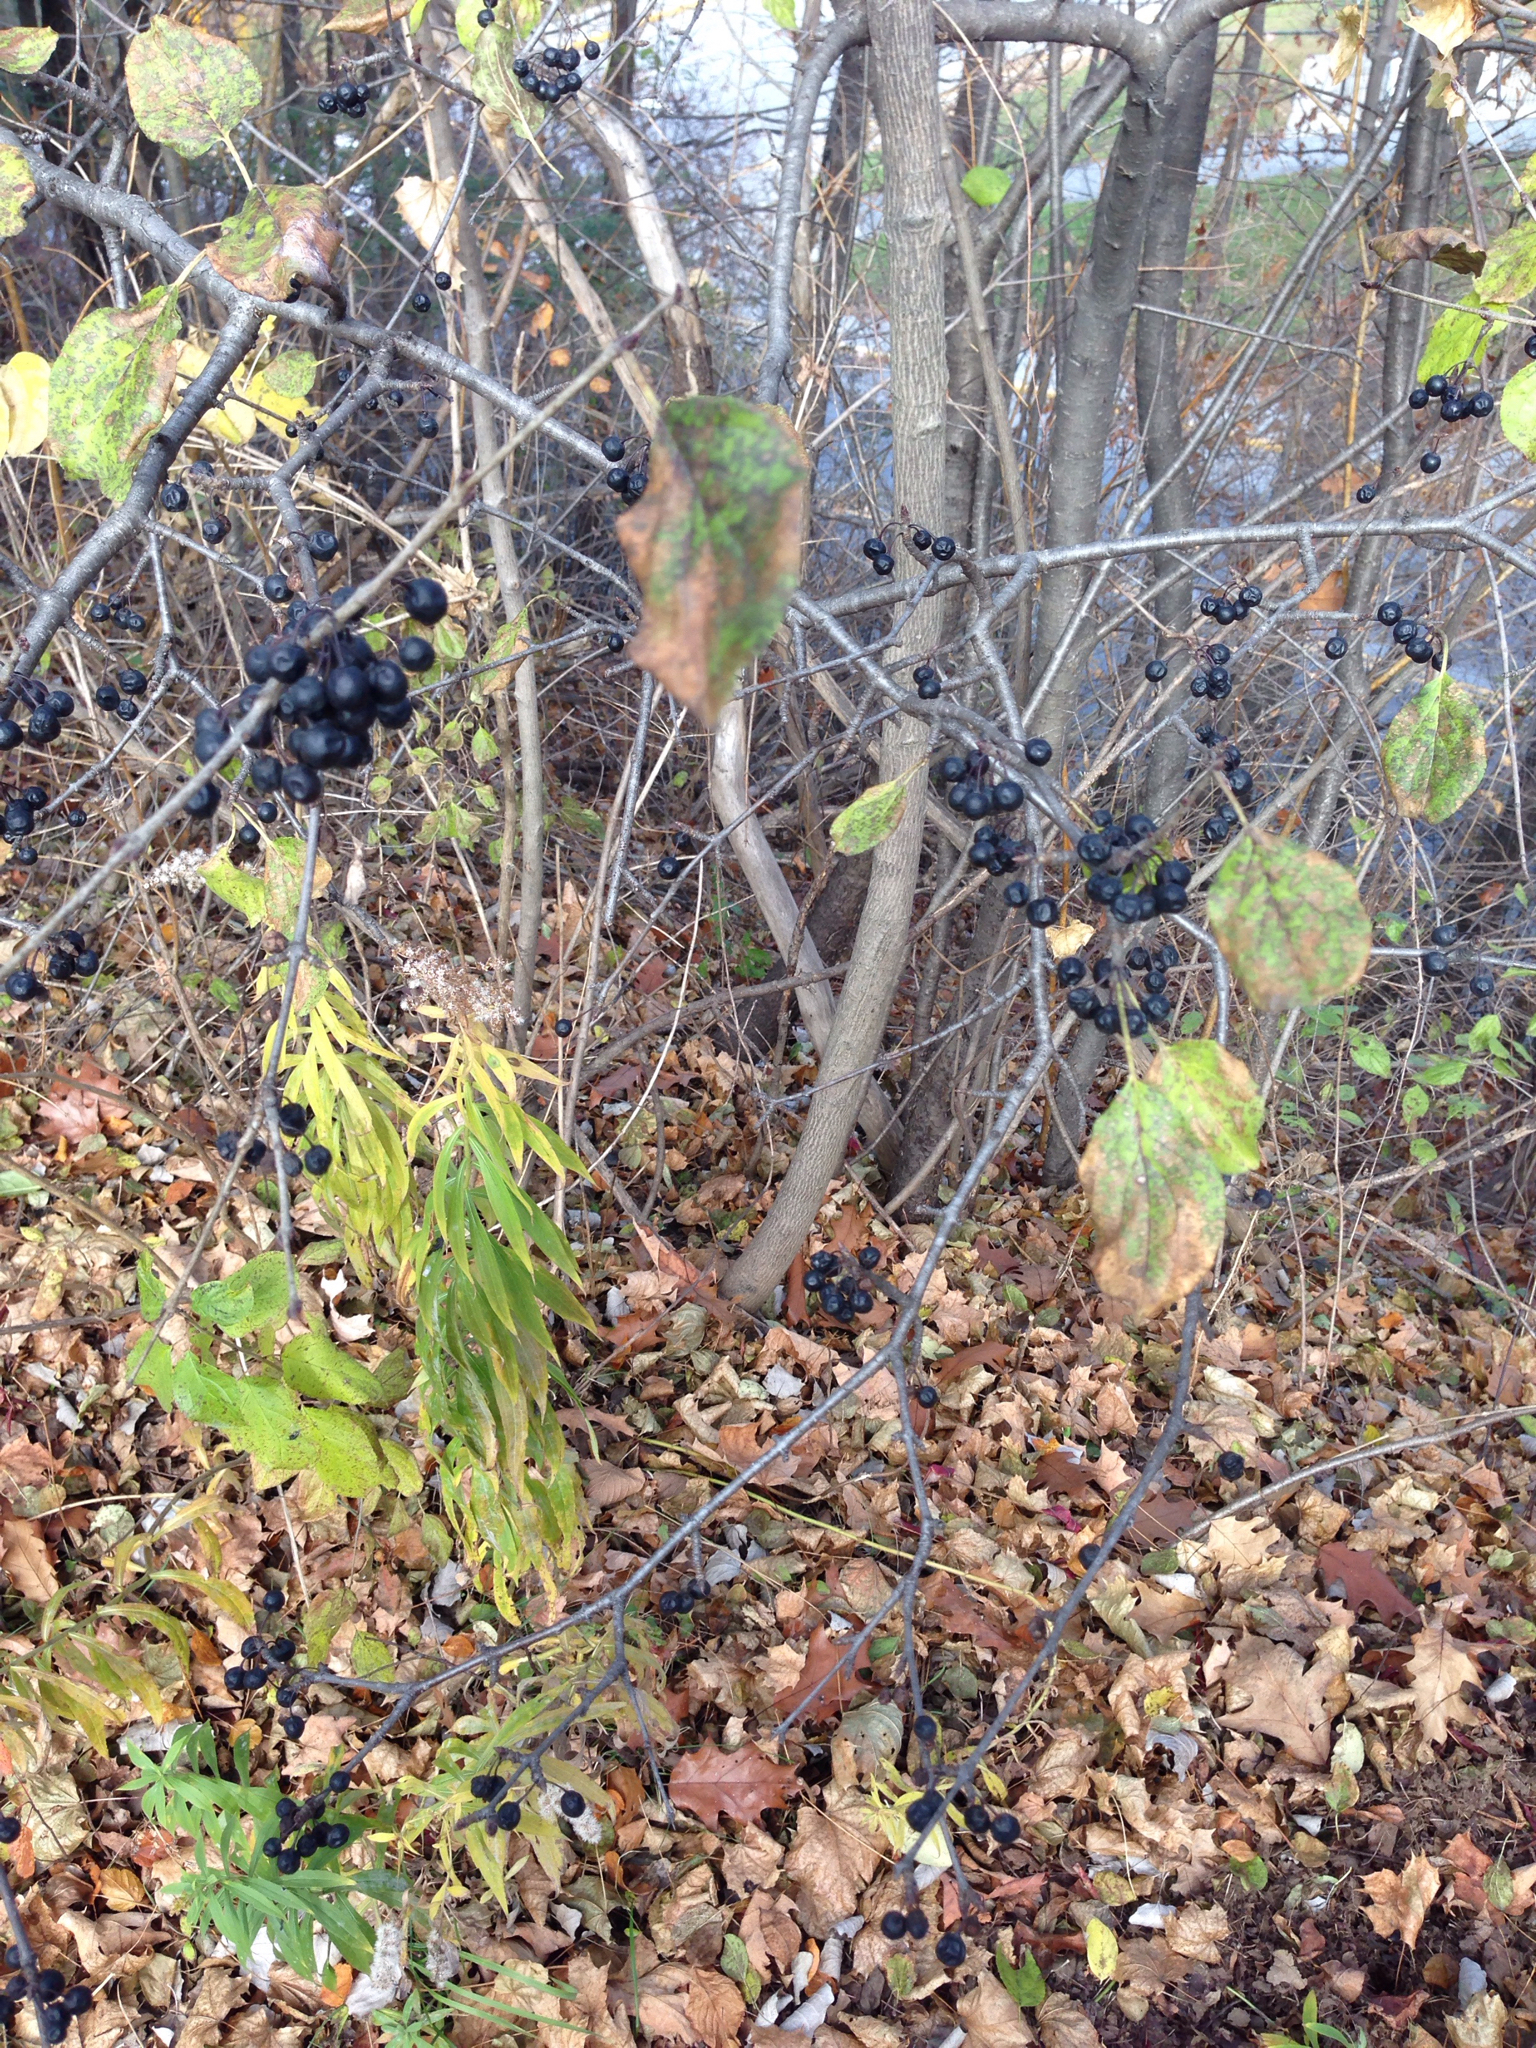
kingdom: Plantae
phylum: Tracheophyta
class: Magnoliopsida
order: Rosales
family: Rhamnaceae
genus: Rhamnus
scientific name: Rhamnus cathartica
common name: Common buckthorn
